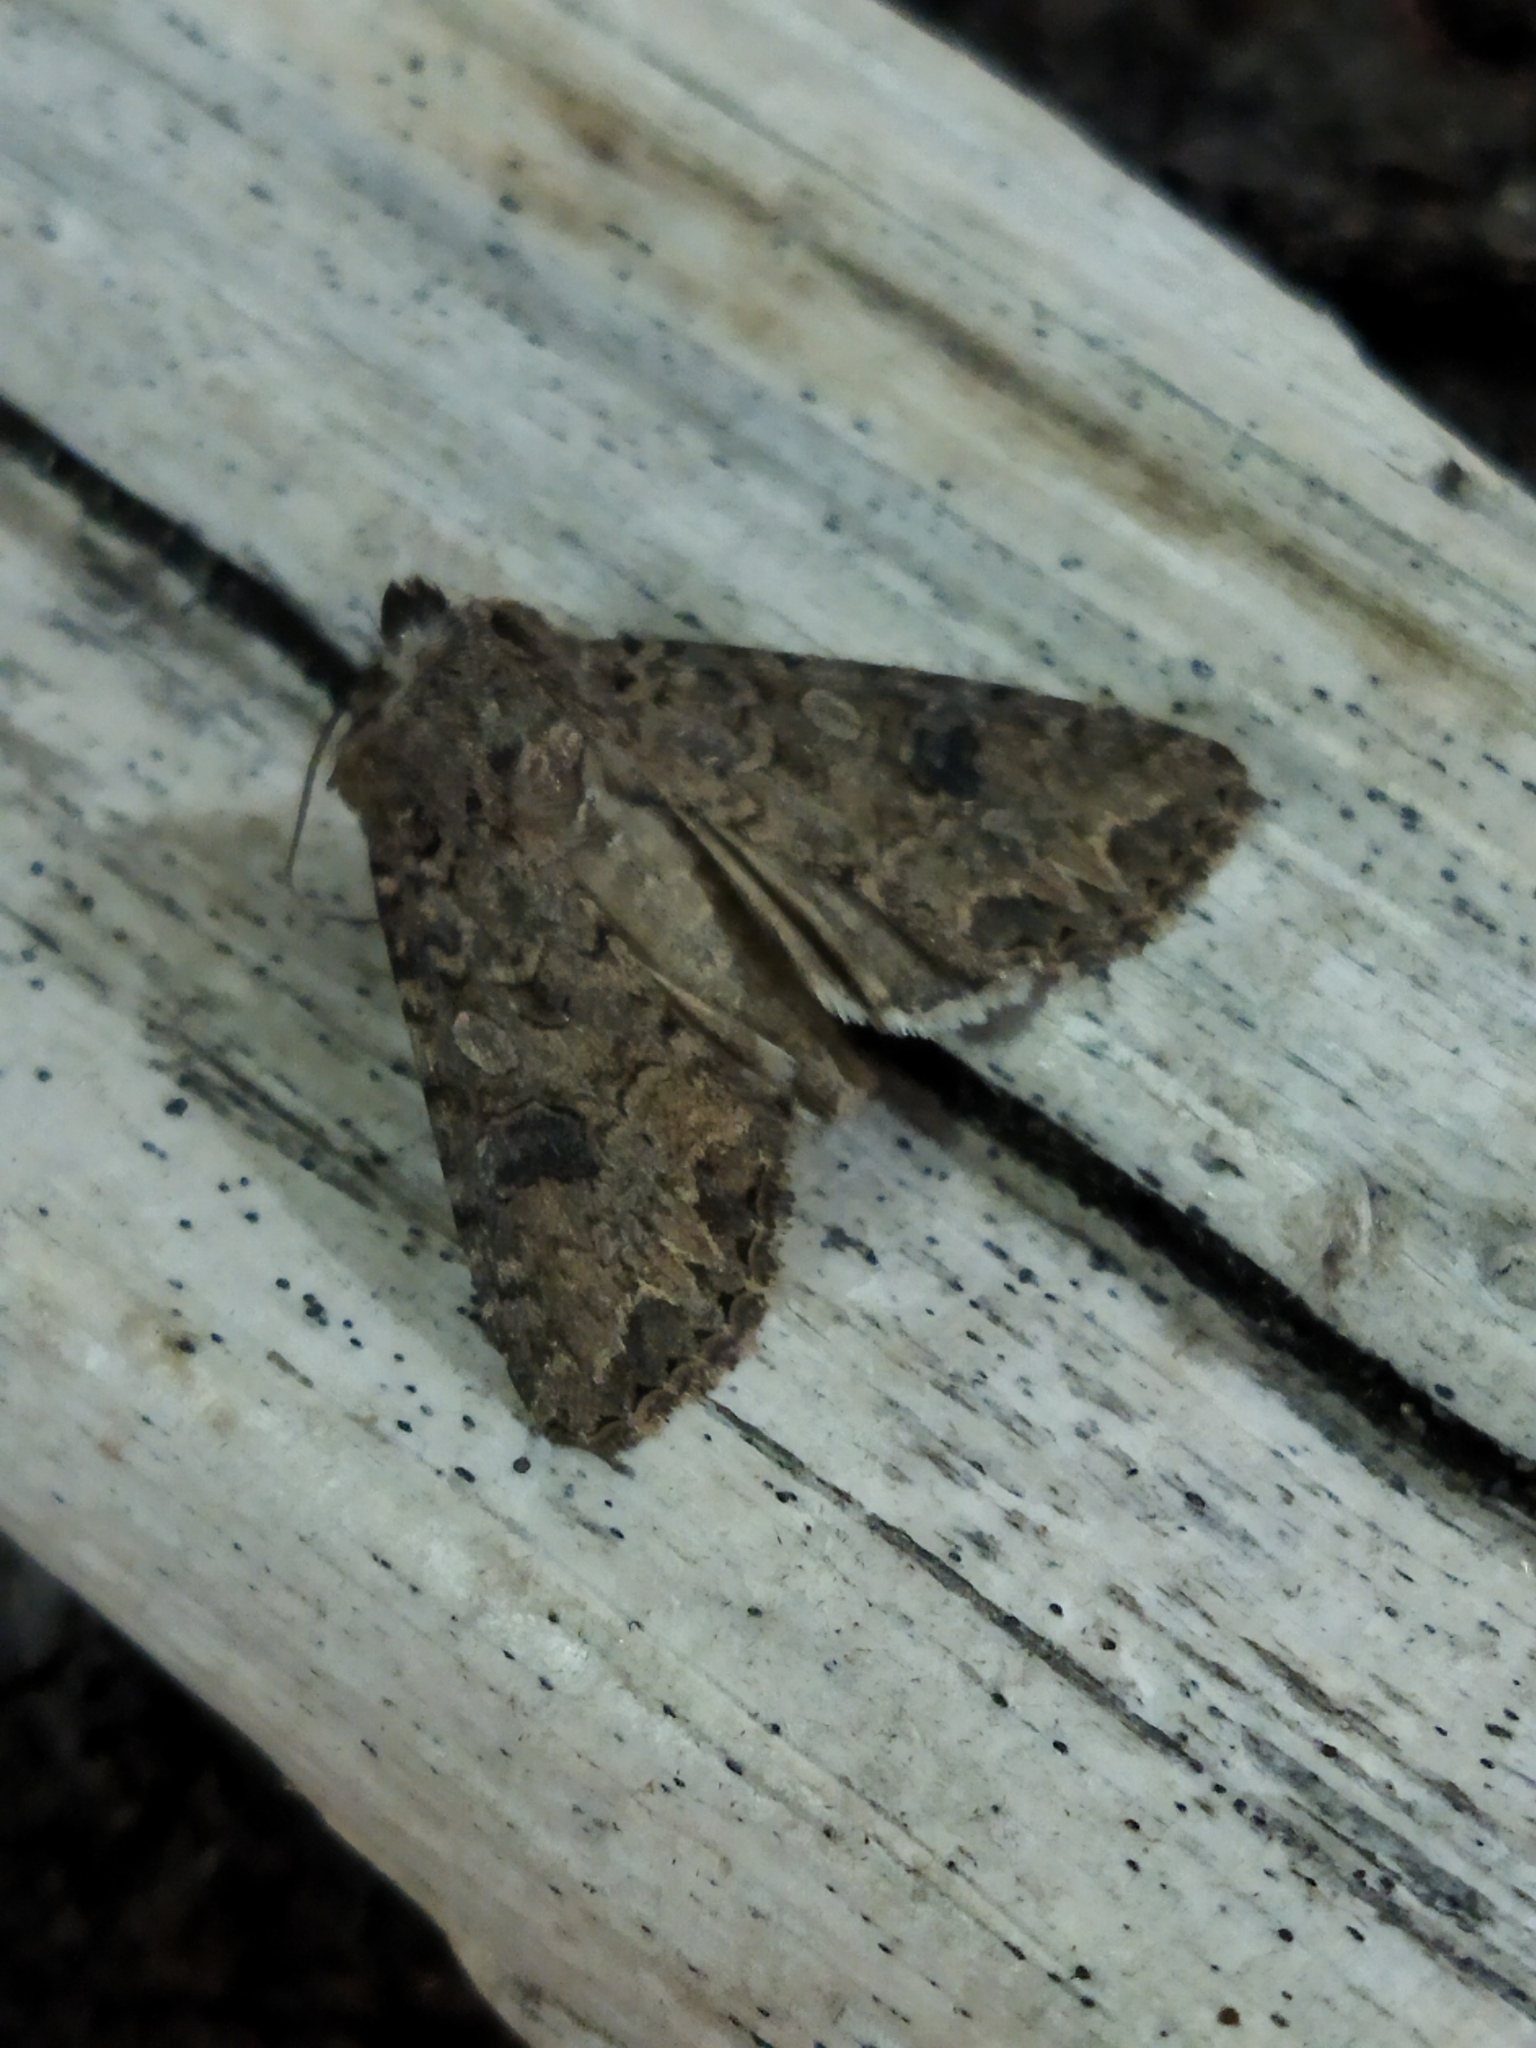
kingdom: Animalia
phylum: Arthropoda
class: Insecta
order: Lepidoptera
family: Noctuidae
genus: Anarta
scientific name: Anarta trifolii
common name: Clover cutworm moth
